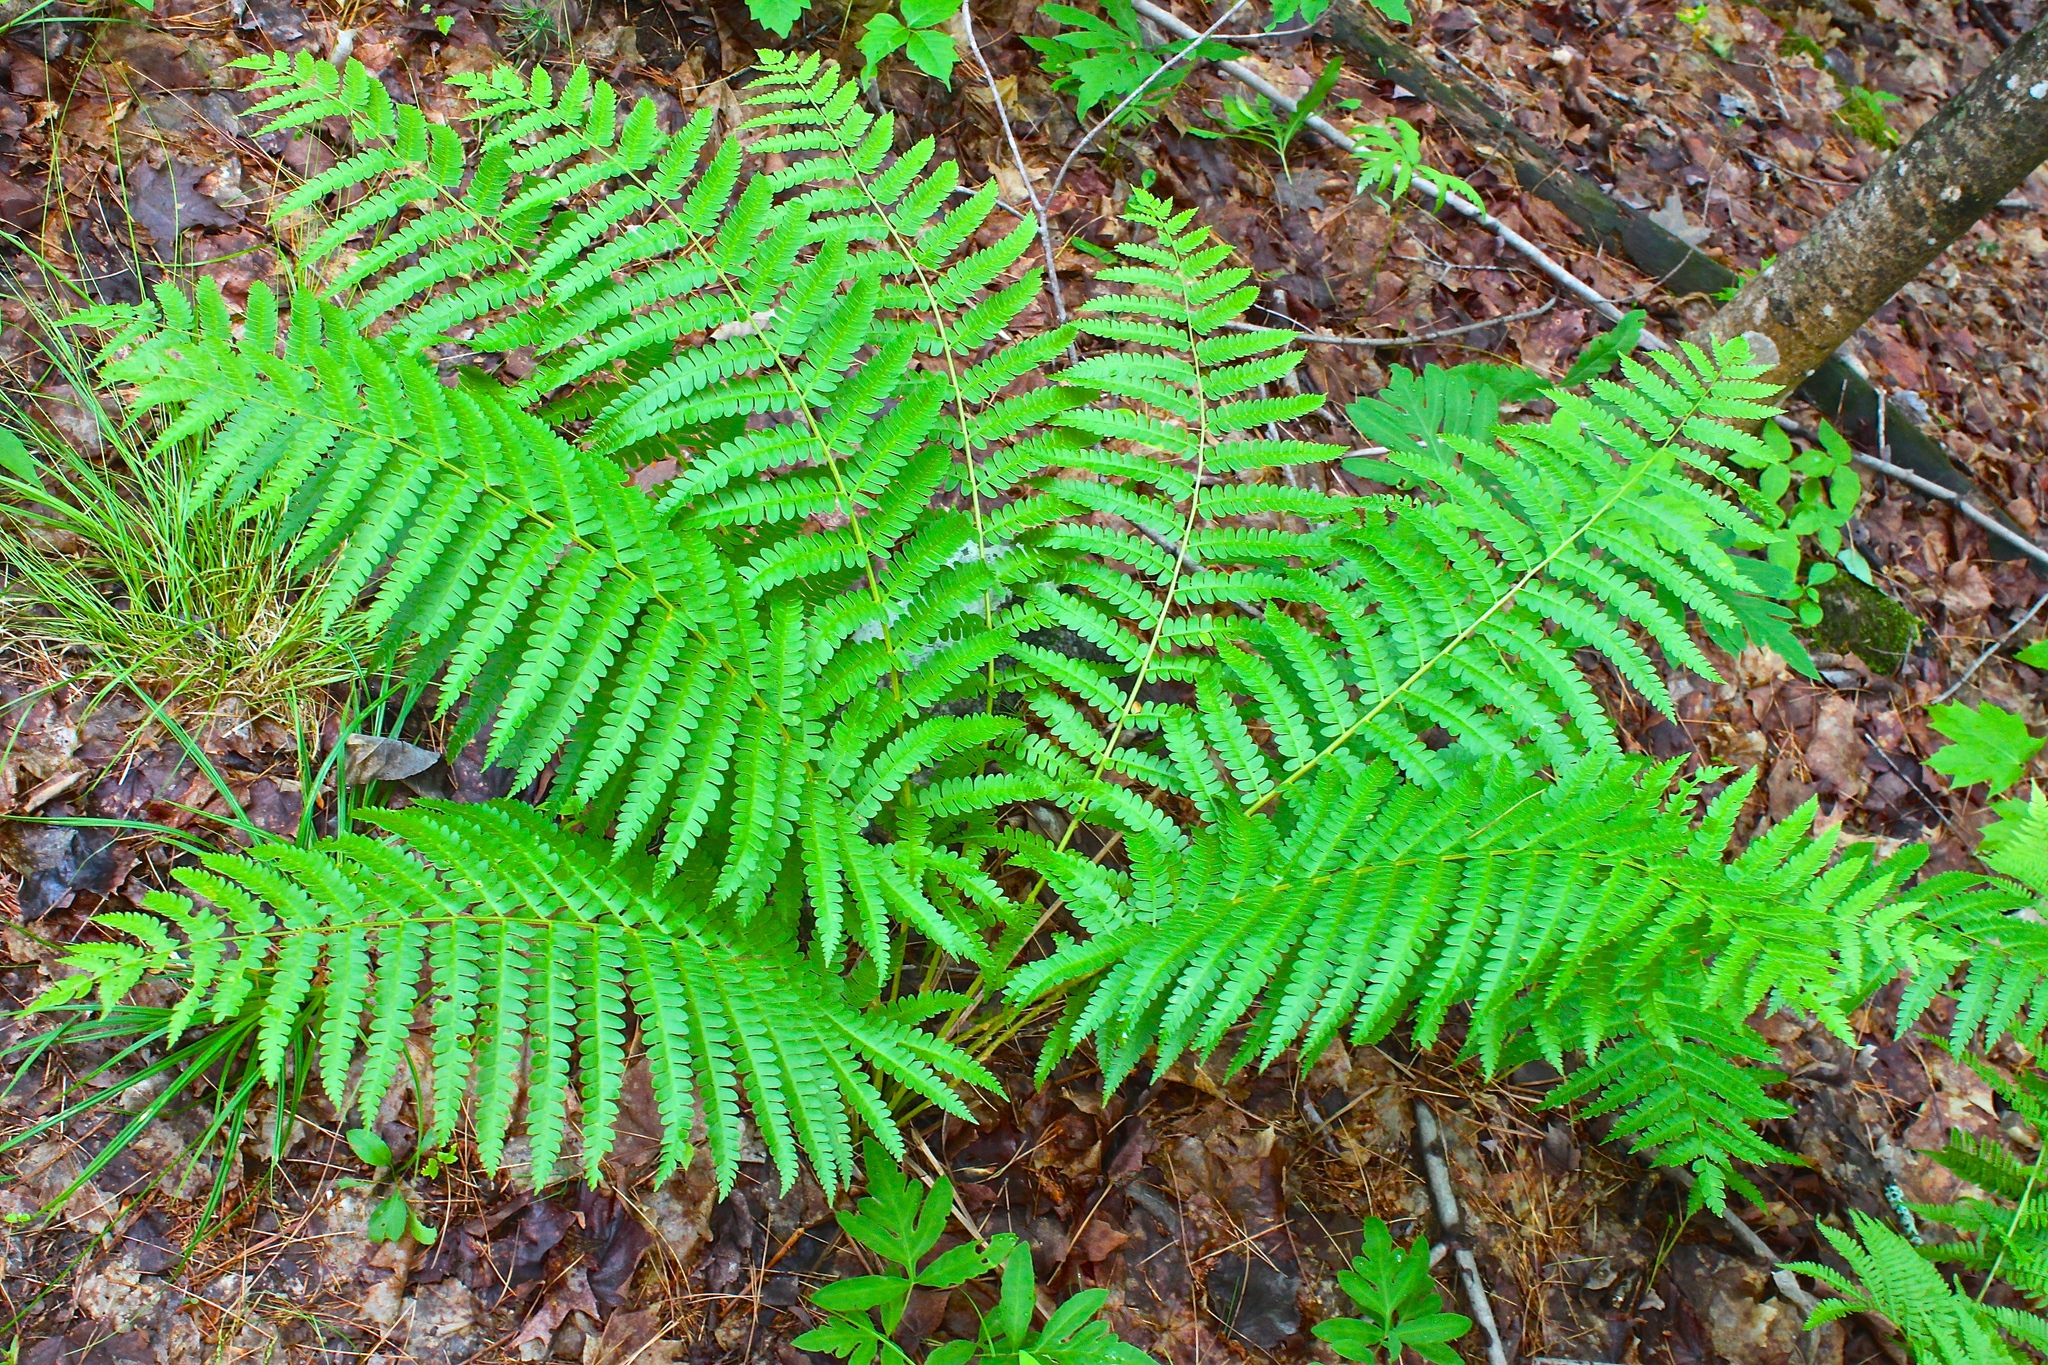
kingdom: Plantae
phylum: Tracheophyta
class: Polypodiopsida
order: Osmundales
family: Osmundaceae
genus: Osmundastrum
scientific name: Osmundastrum cinnamomeum
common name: Cinnamon fern
